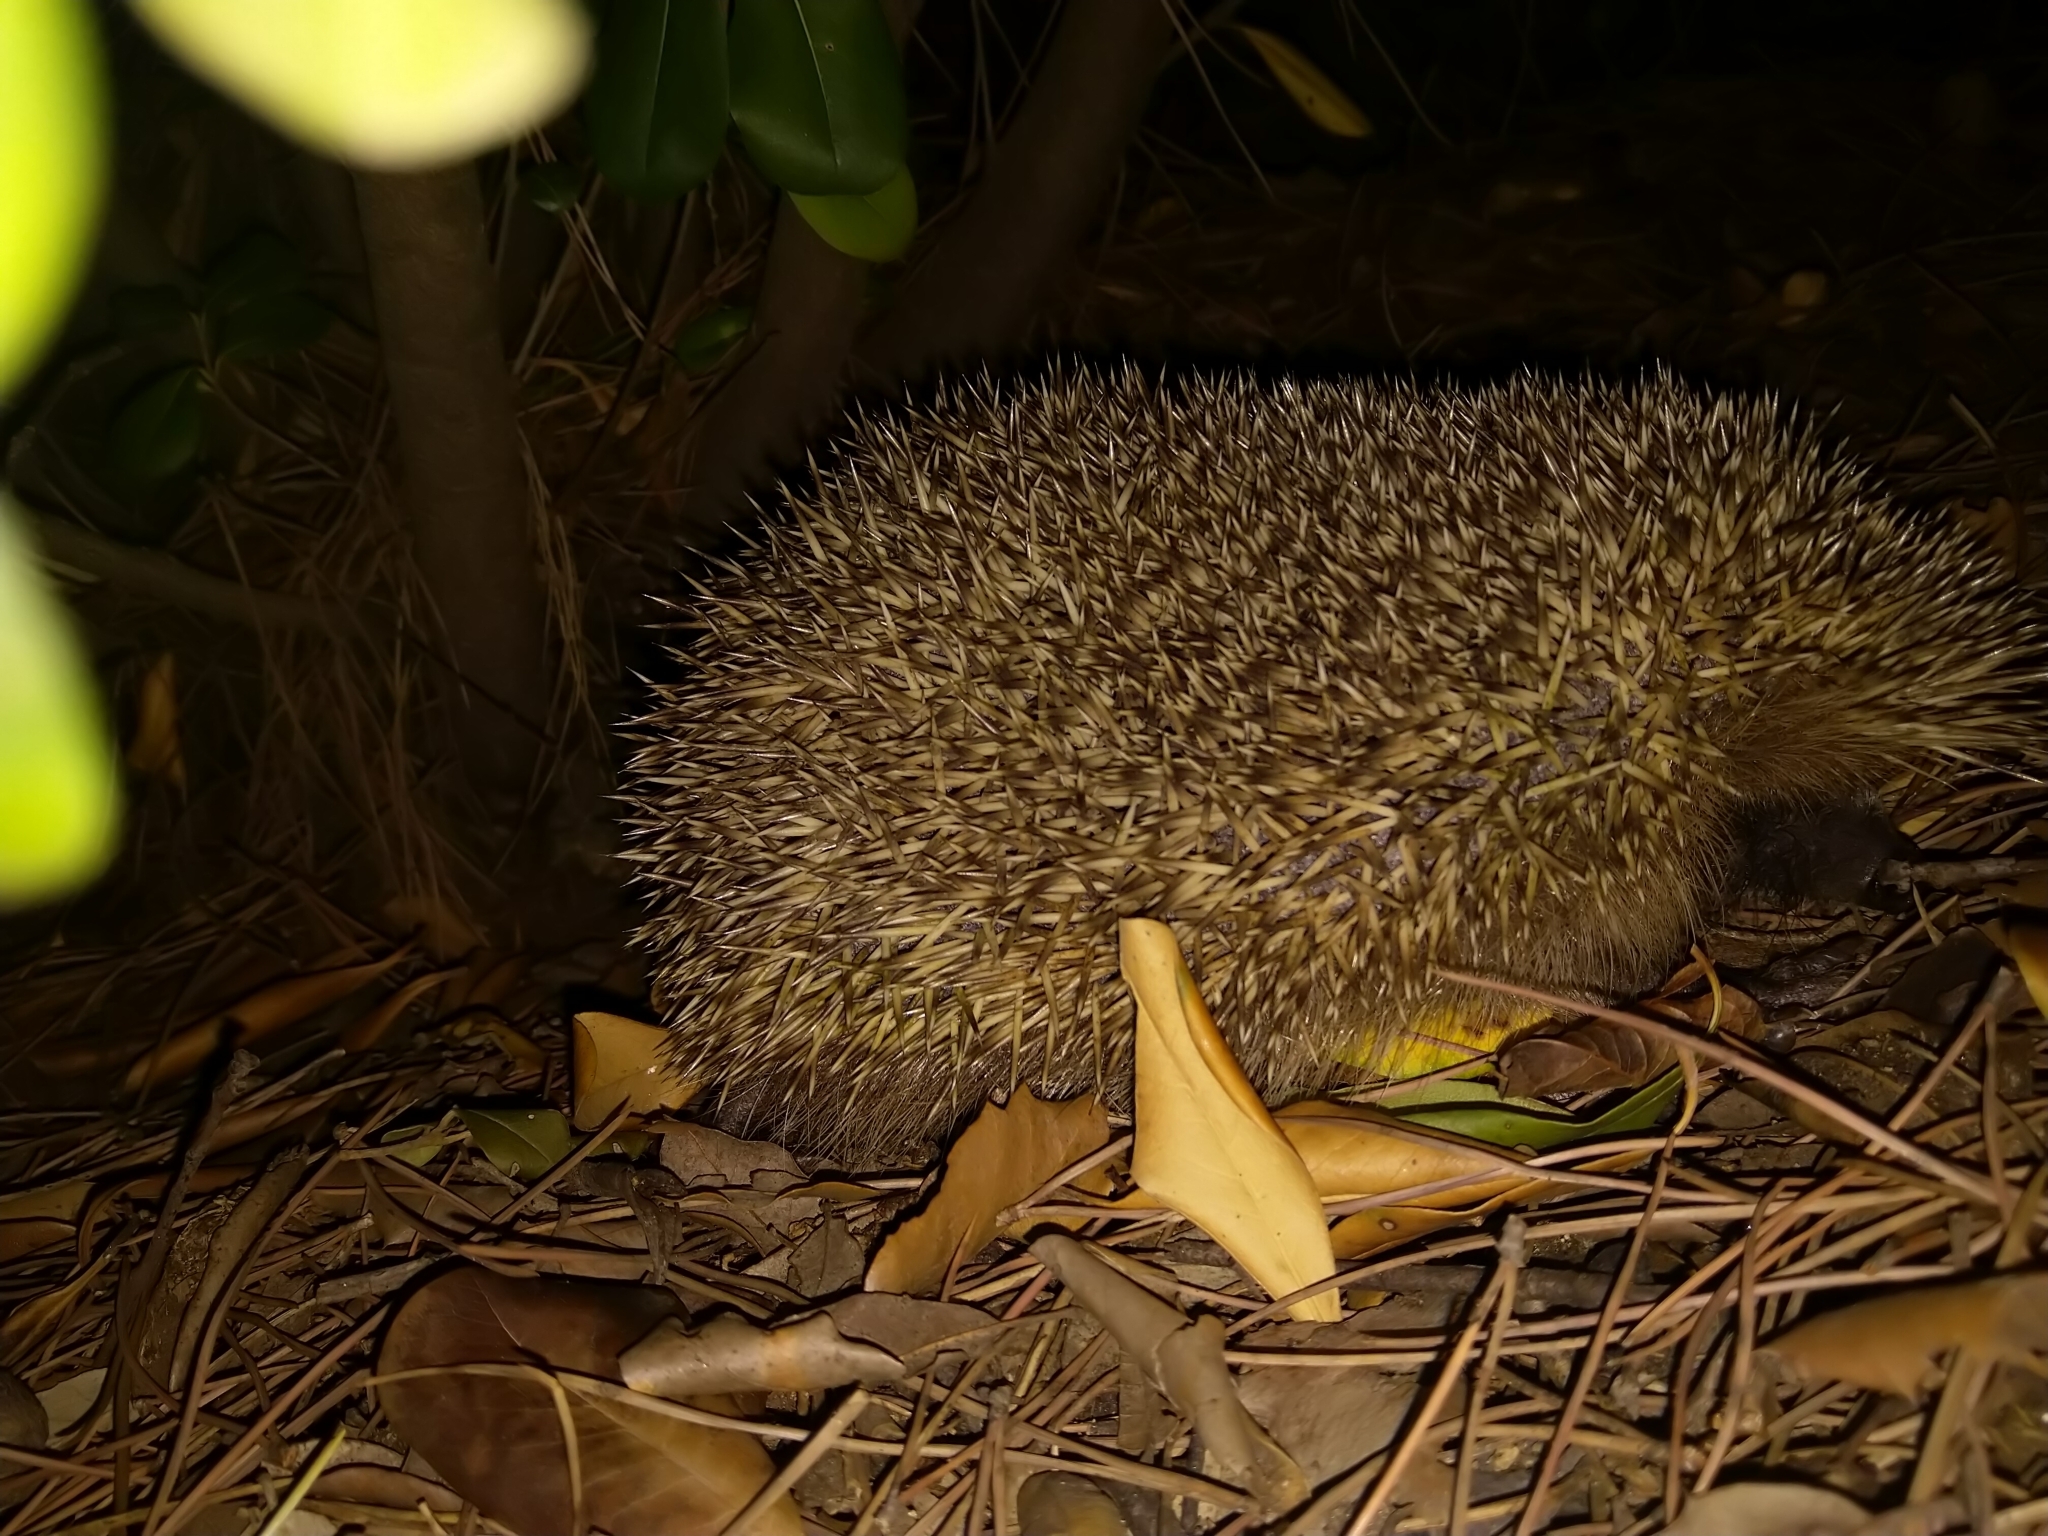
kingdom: Animalia
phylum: Chordata
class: Mammalia
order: Erinaceomorpha
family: Erinaceidae
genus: Erinaceus
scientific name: Erinaceus europaeus
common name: West european hedgehog
